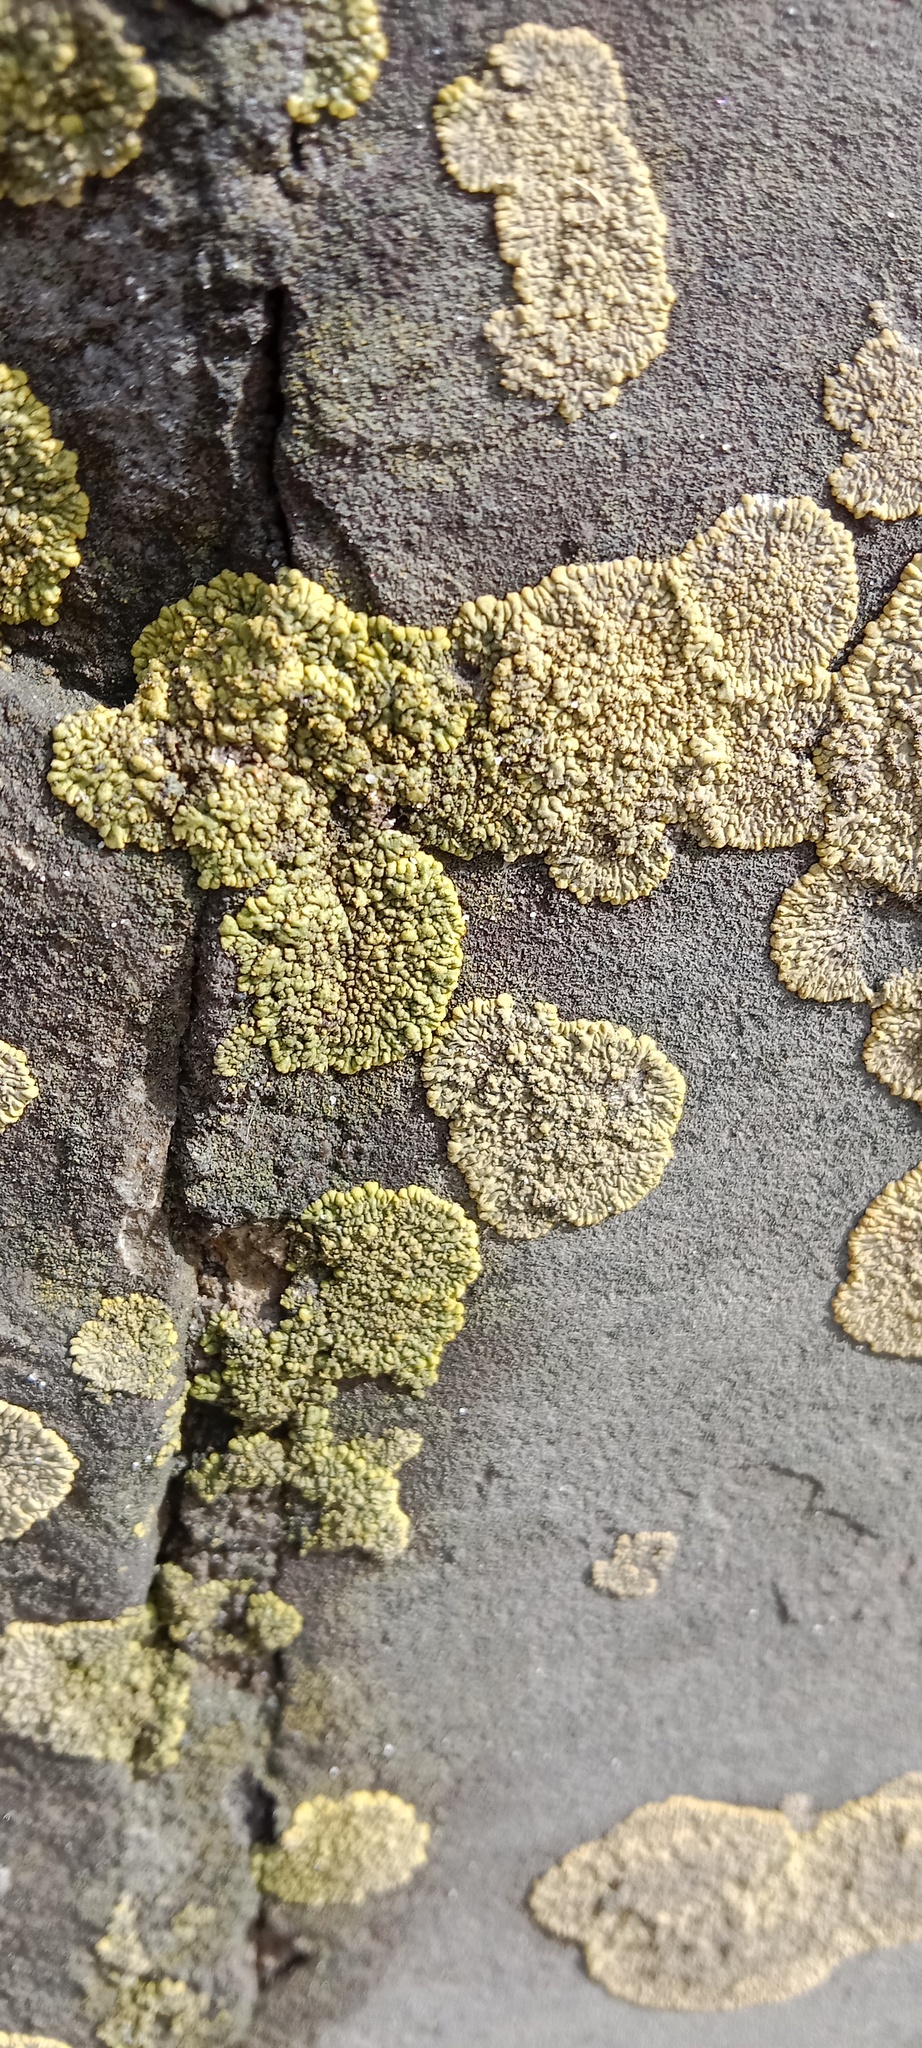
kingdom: Fungi
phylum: Ascomycota
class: Lecanoromycetes
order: Teloschistales
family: Teloschistaceae
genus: Calogaya
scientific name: Calogaya decipiens
